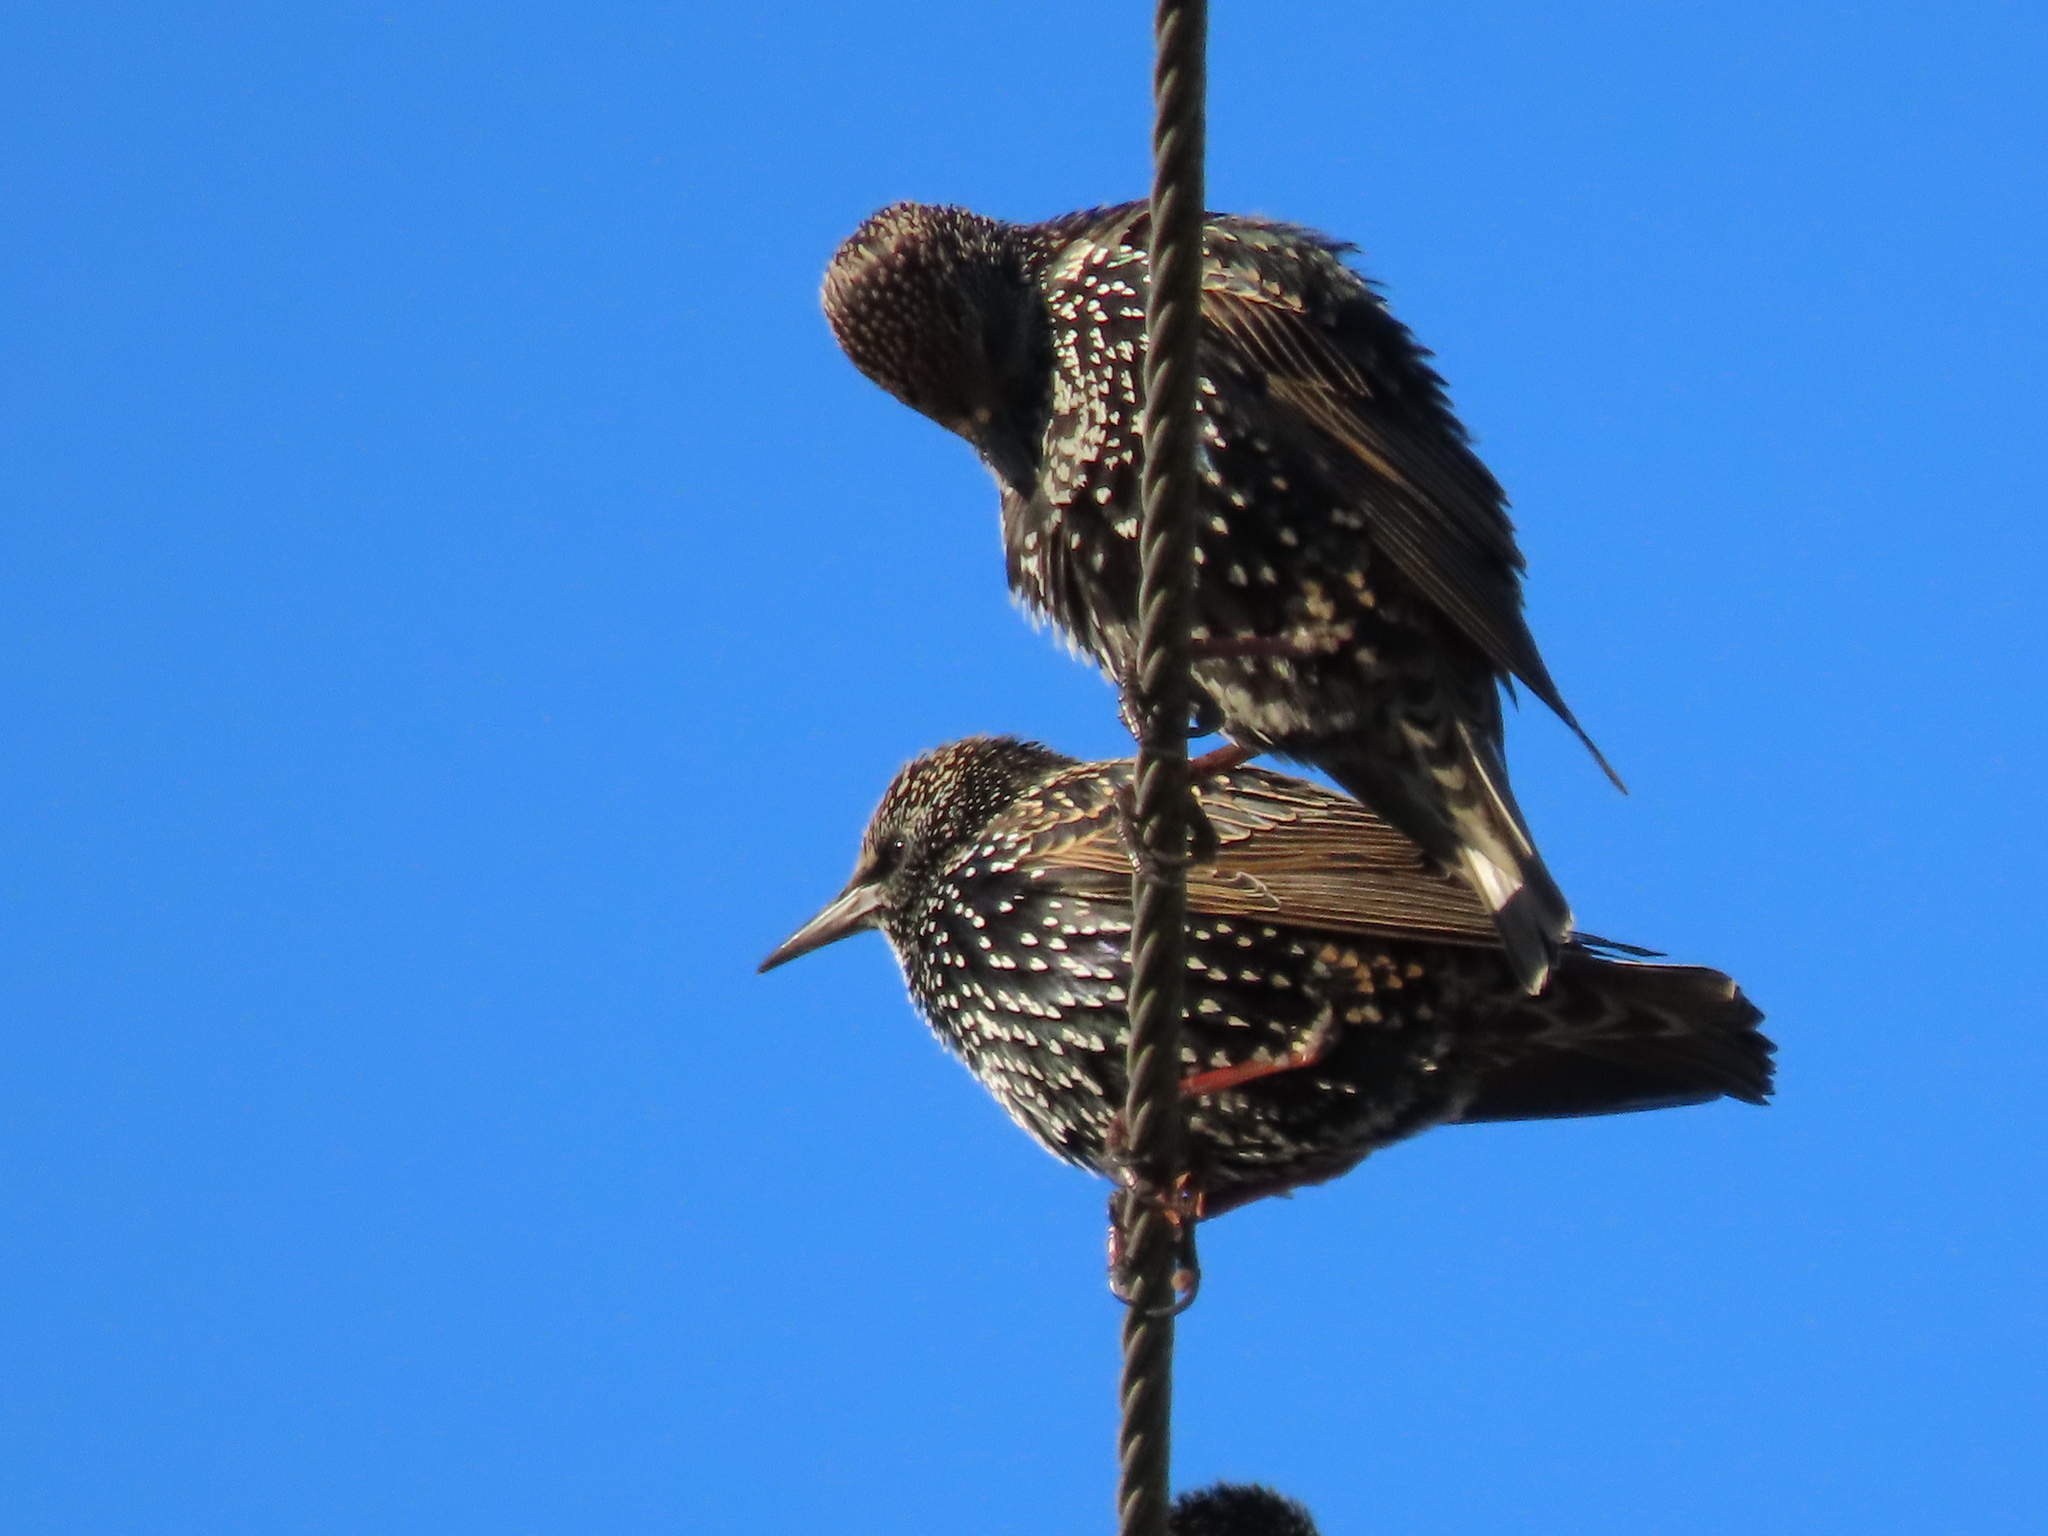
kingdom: Animalia
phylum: Chordata
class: Aves
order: Passeriformes
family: Sturnidae
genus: Sturnus
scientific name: Sturnus vulgaris
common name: Common starling
